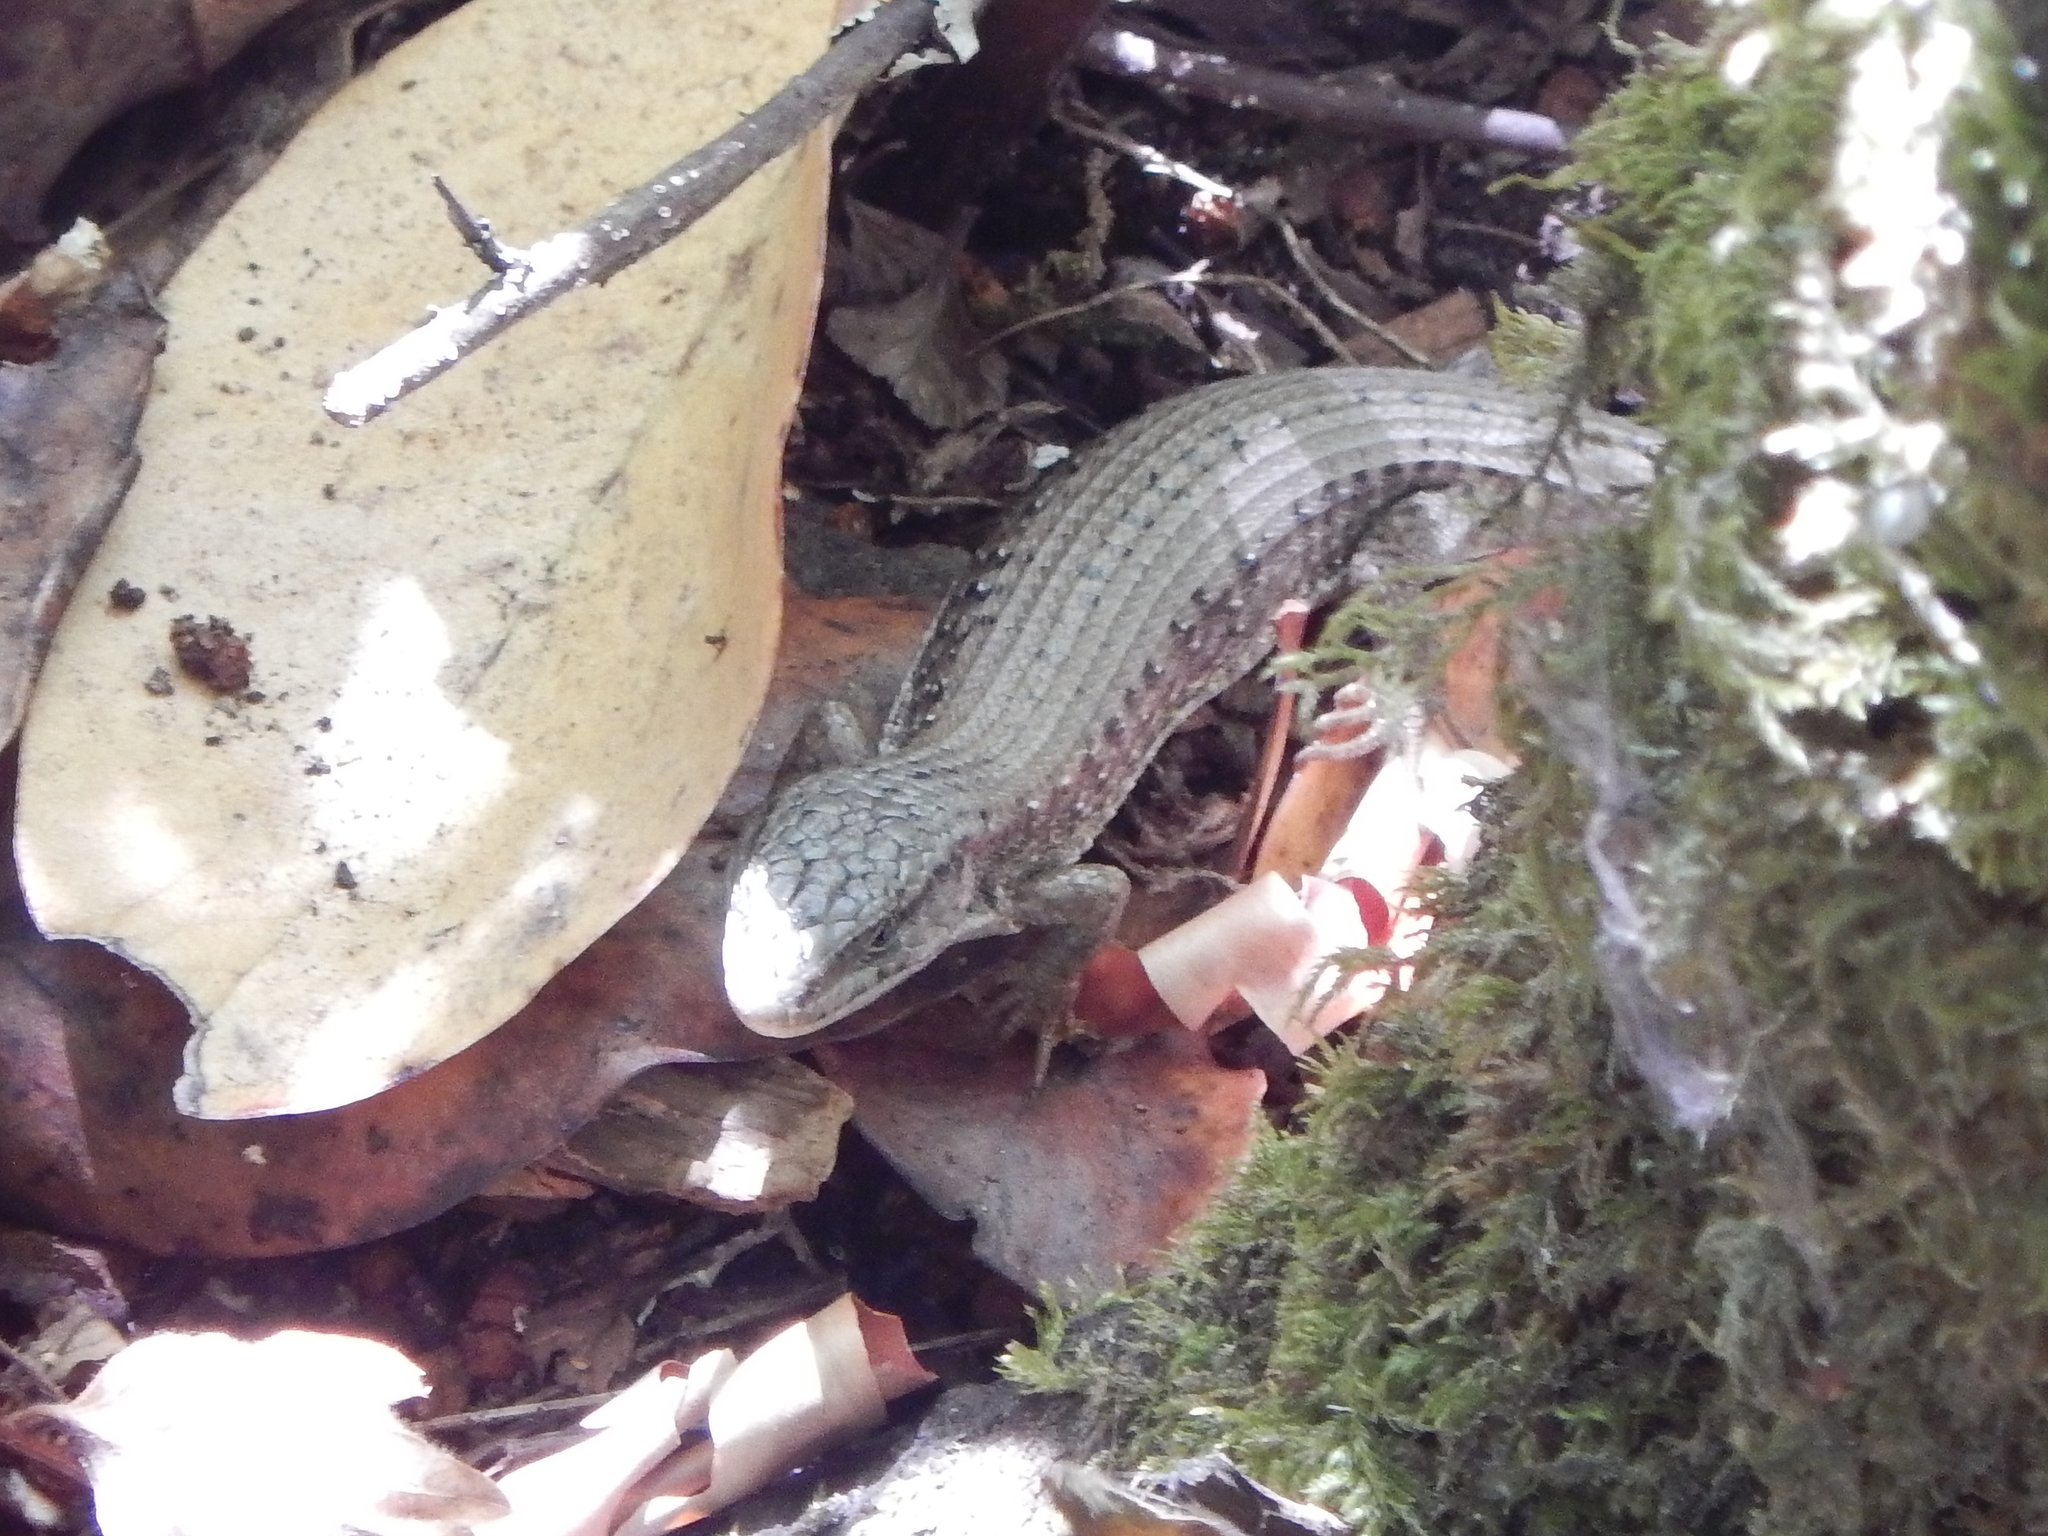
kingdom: Animalia
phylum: Chordata
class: Squamata
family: Anguidae
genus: Elgaria
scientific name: Elgaria coerulea
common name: Northern alligator lizard
